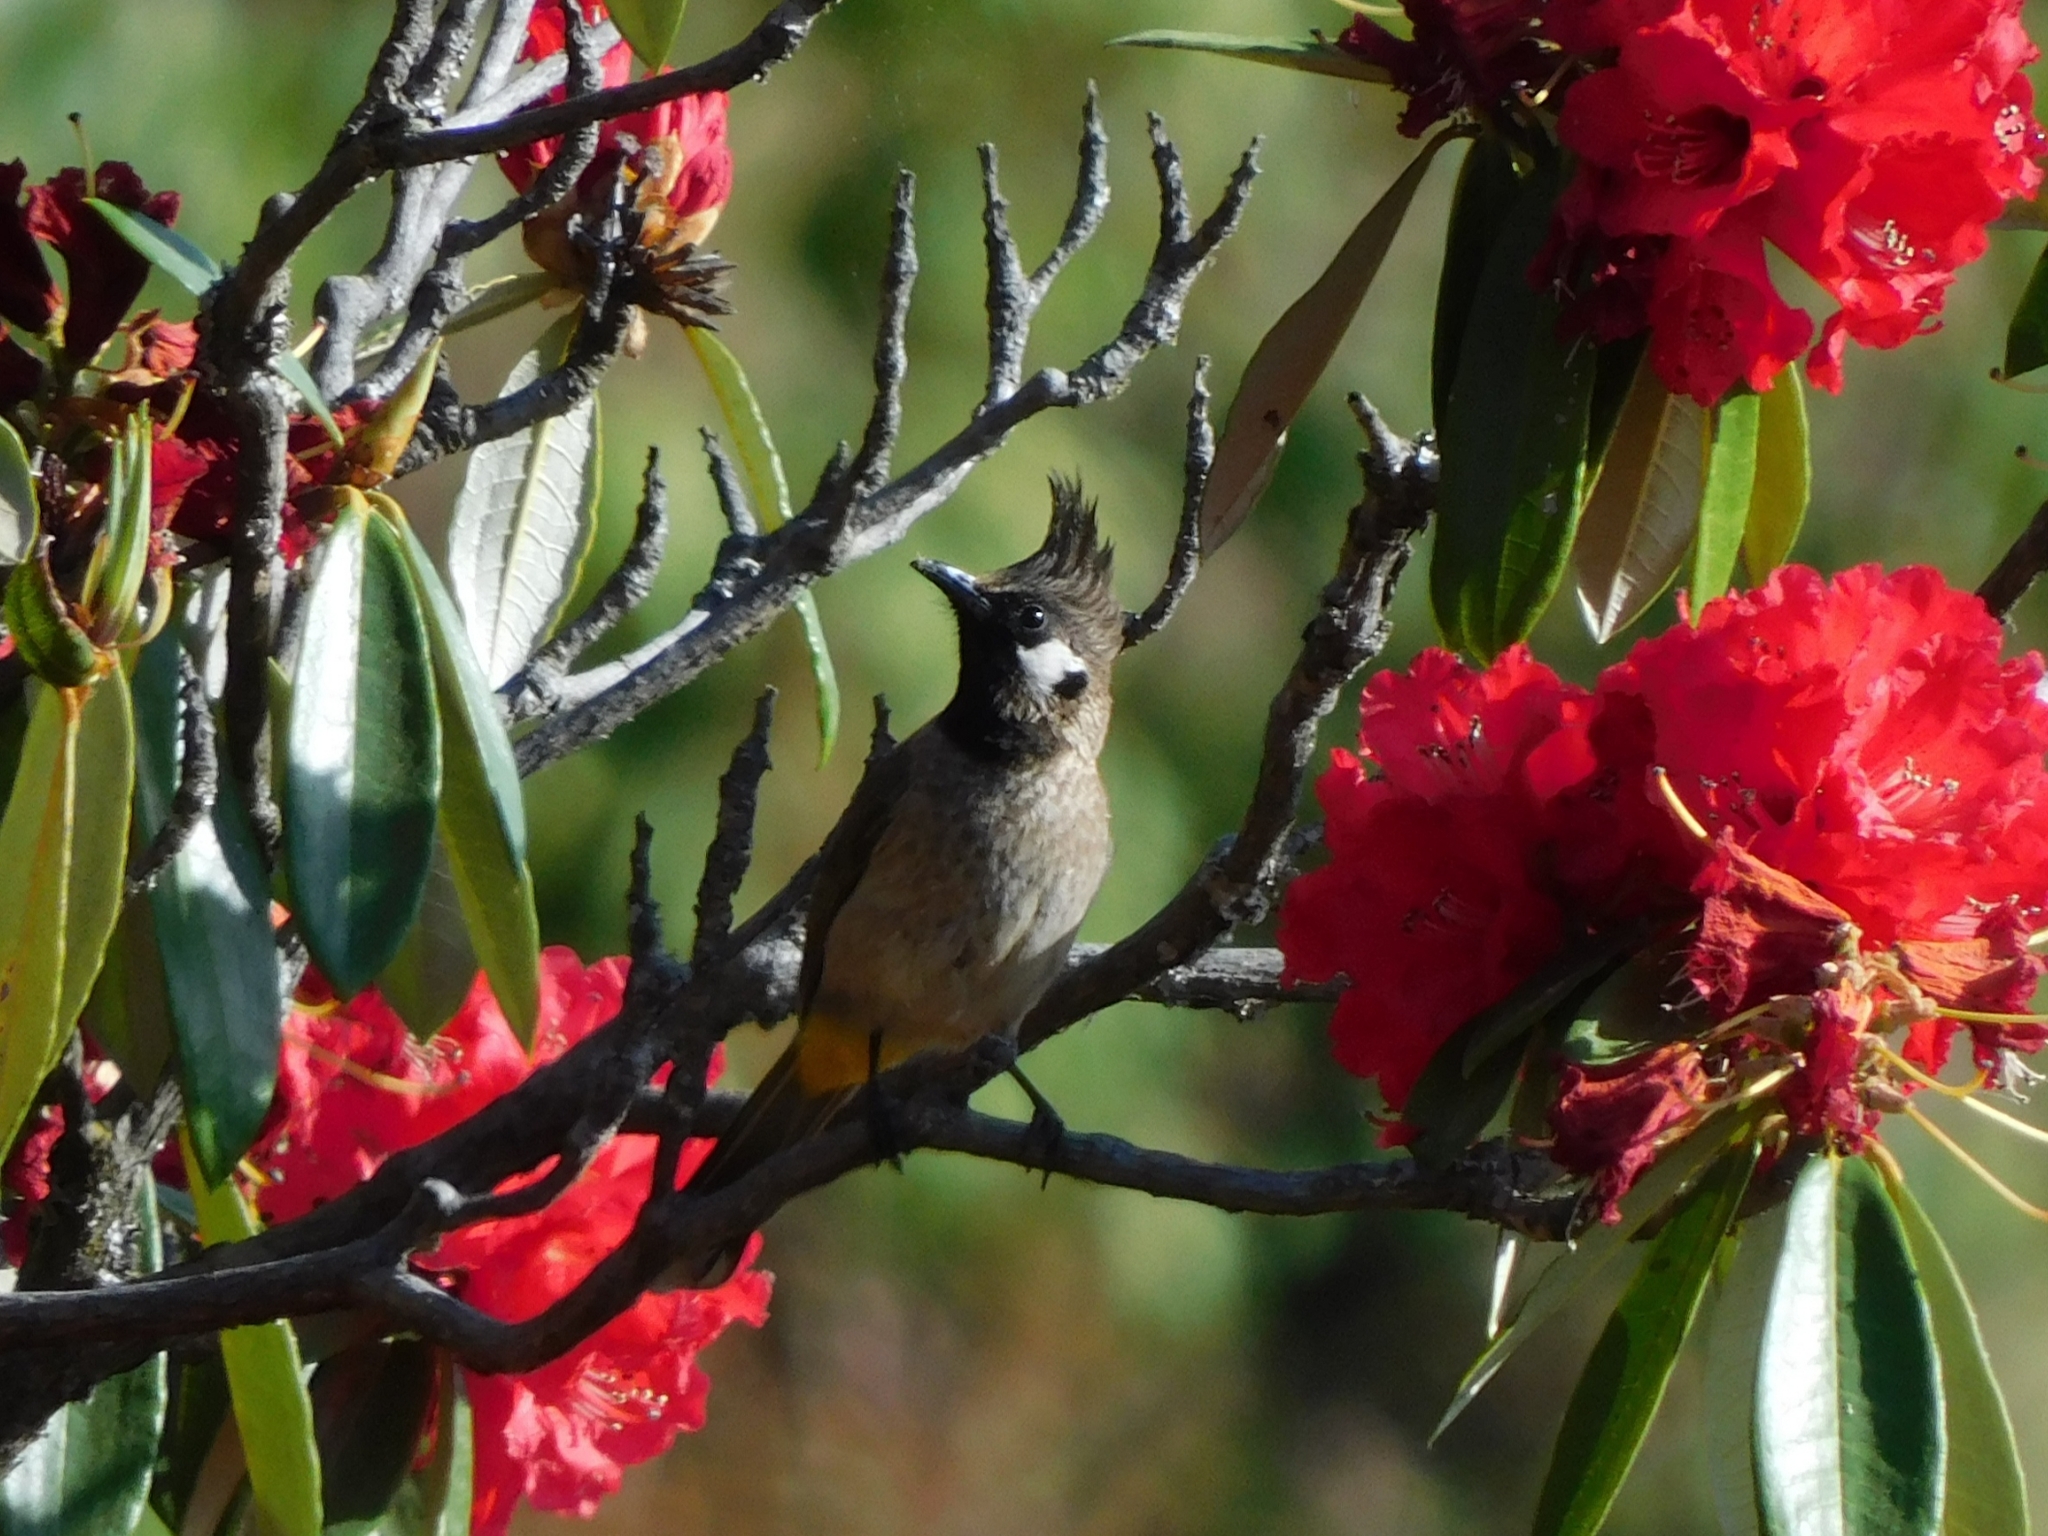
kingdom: Animalia
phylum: Chordata
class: Aves
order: Passeriformes
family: Pycnonotidae
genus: Pycnonotus
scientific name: Pycnonotus leucogenys
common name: Himalayan bulbul
